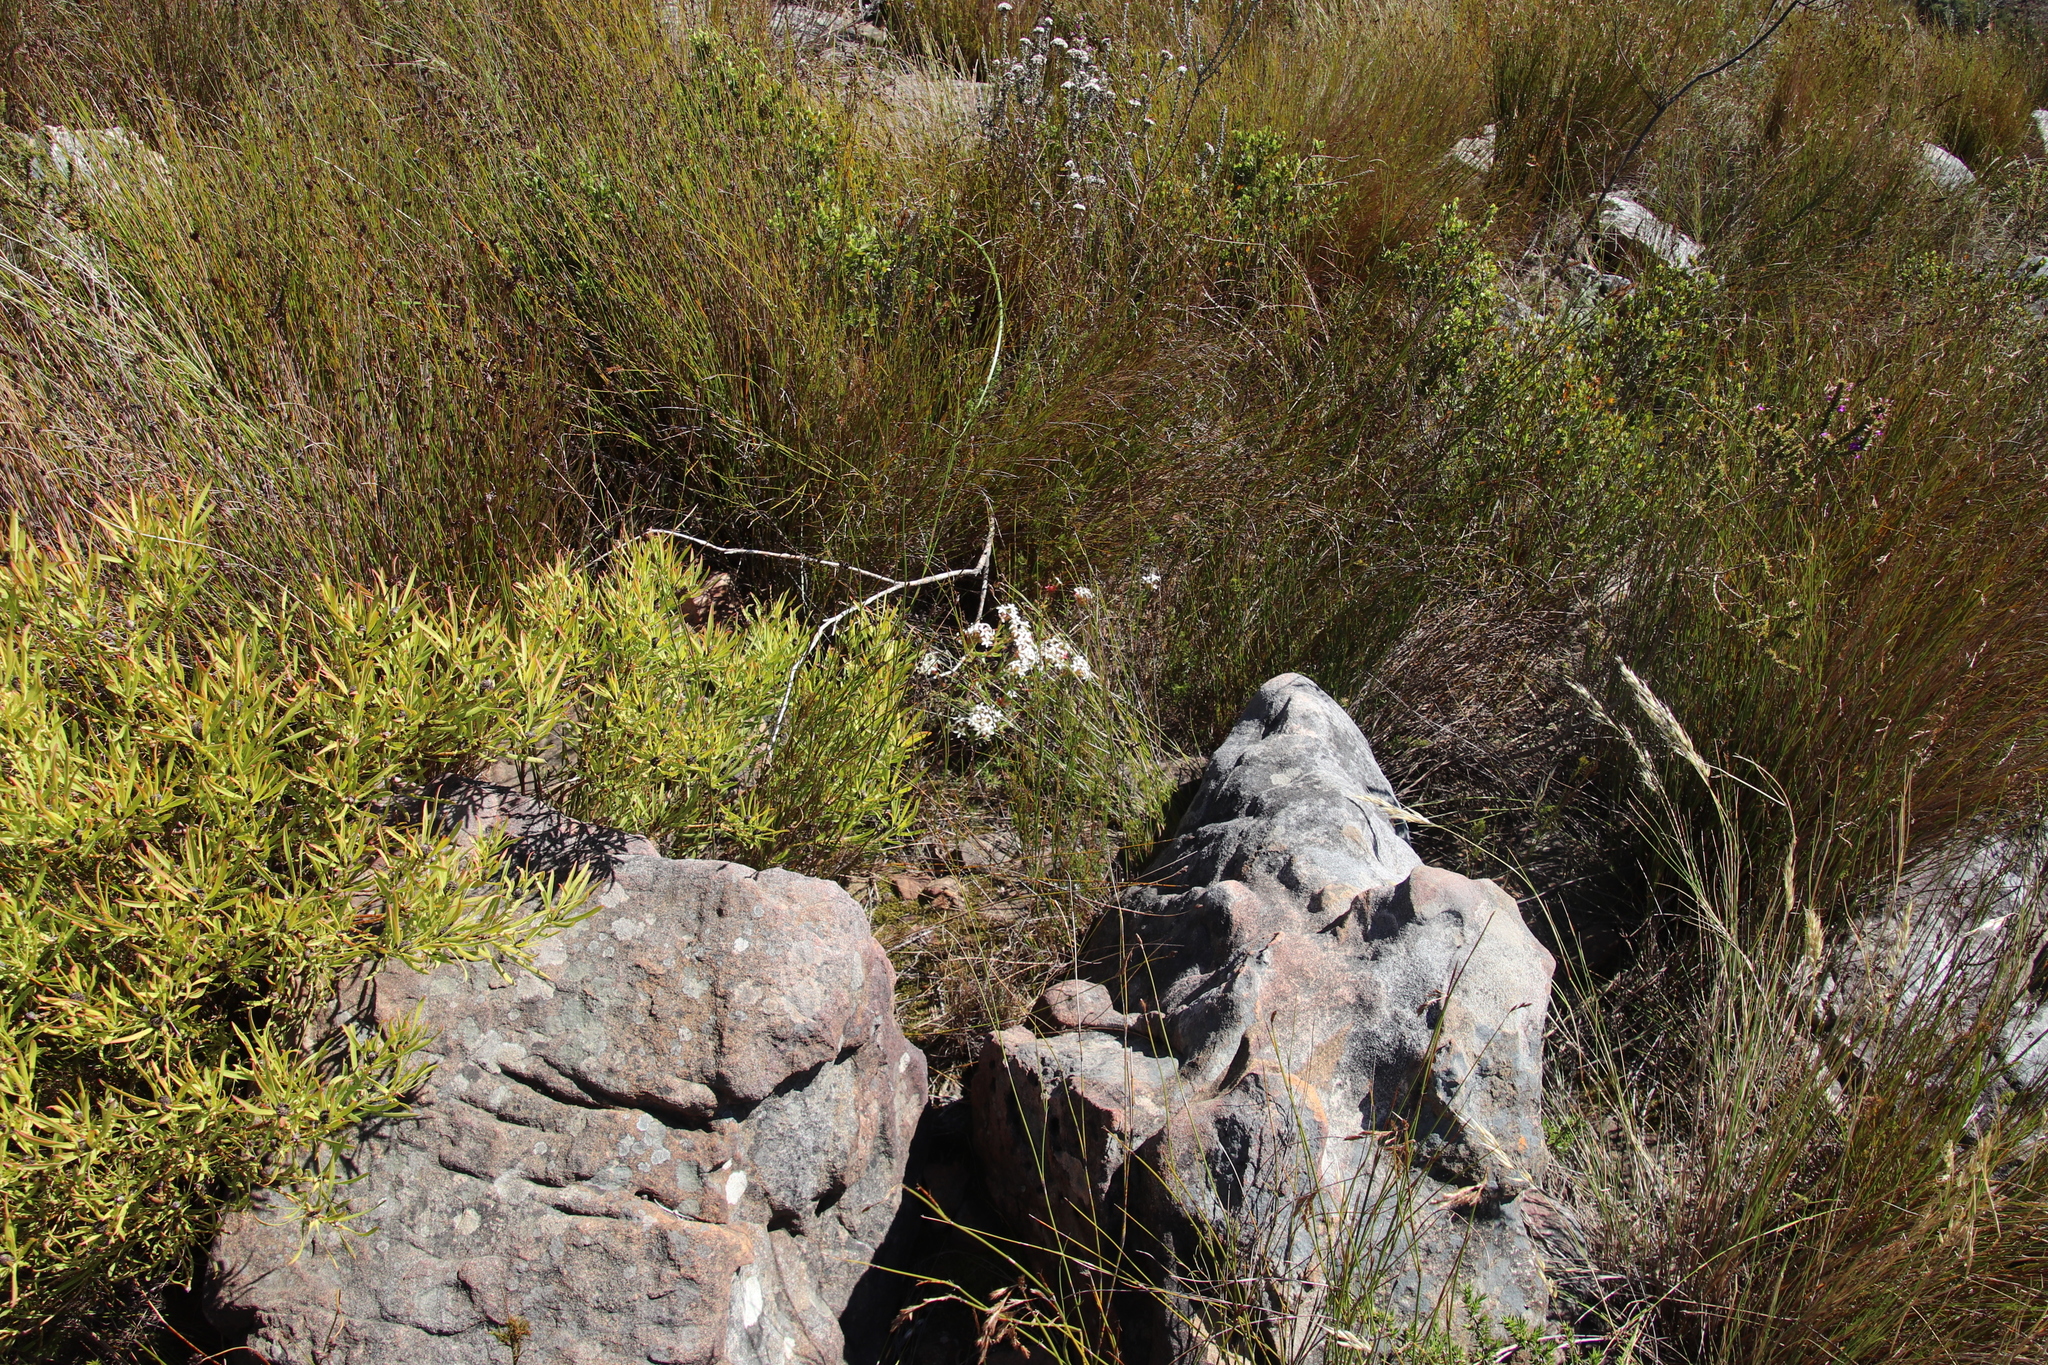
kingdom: Plantae
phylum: Tracheophyta
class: Magnoliopsida
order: Proteales
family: Proteaceae
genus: Leucadendron
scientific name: Leucadendron salignum
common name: Common sunshine conebush
